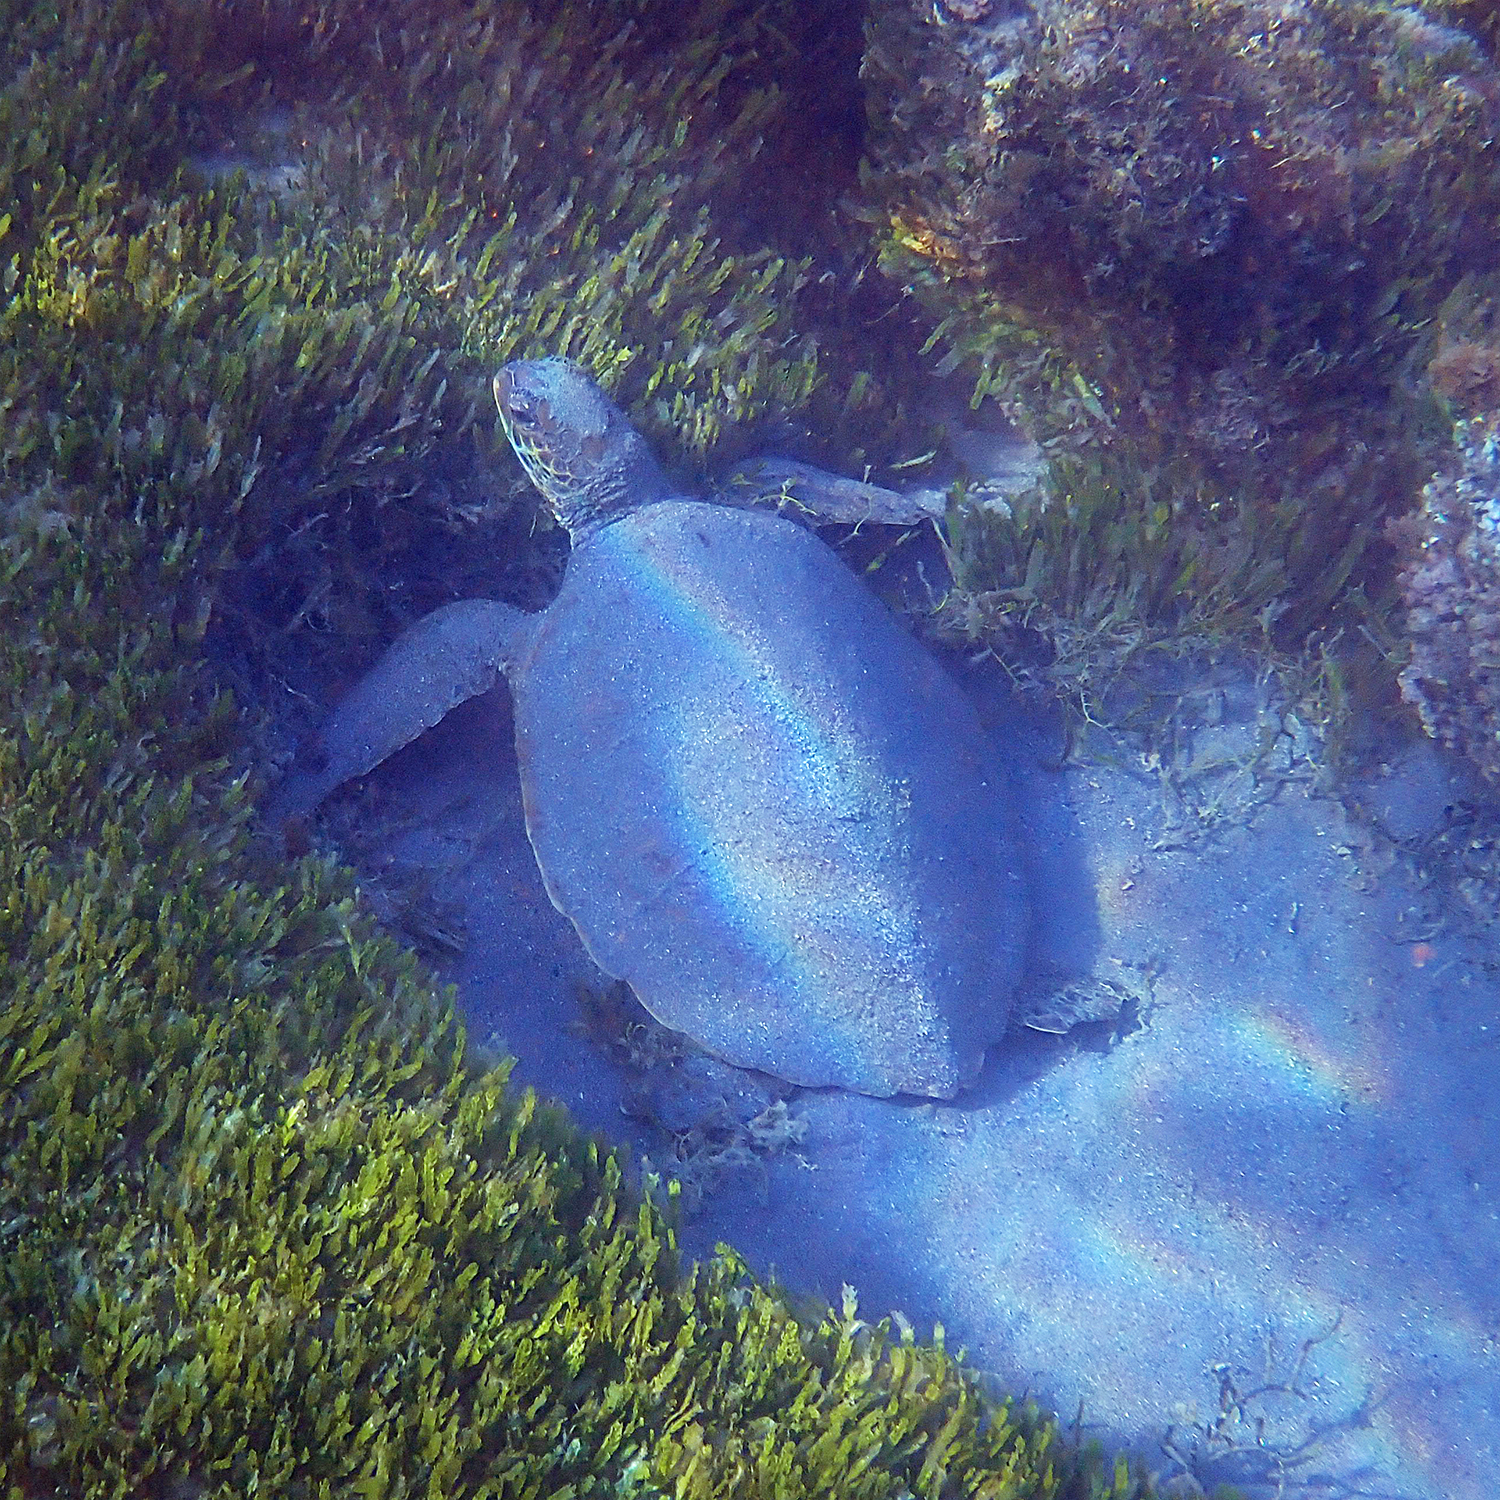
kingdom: Animalia
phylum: Chordata
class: Testudines
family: Cheloniidae
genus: Chelonia
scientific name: Chelonia mydas
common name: Green turtle
